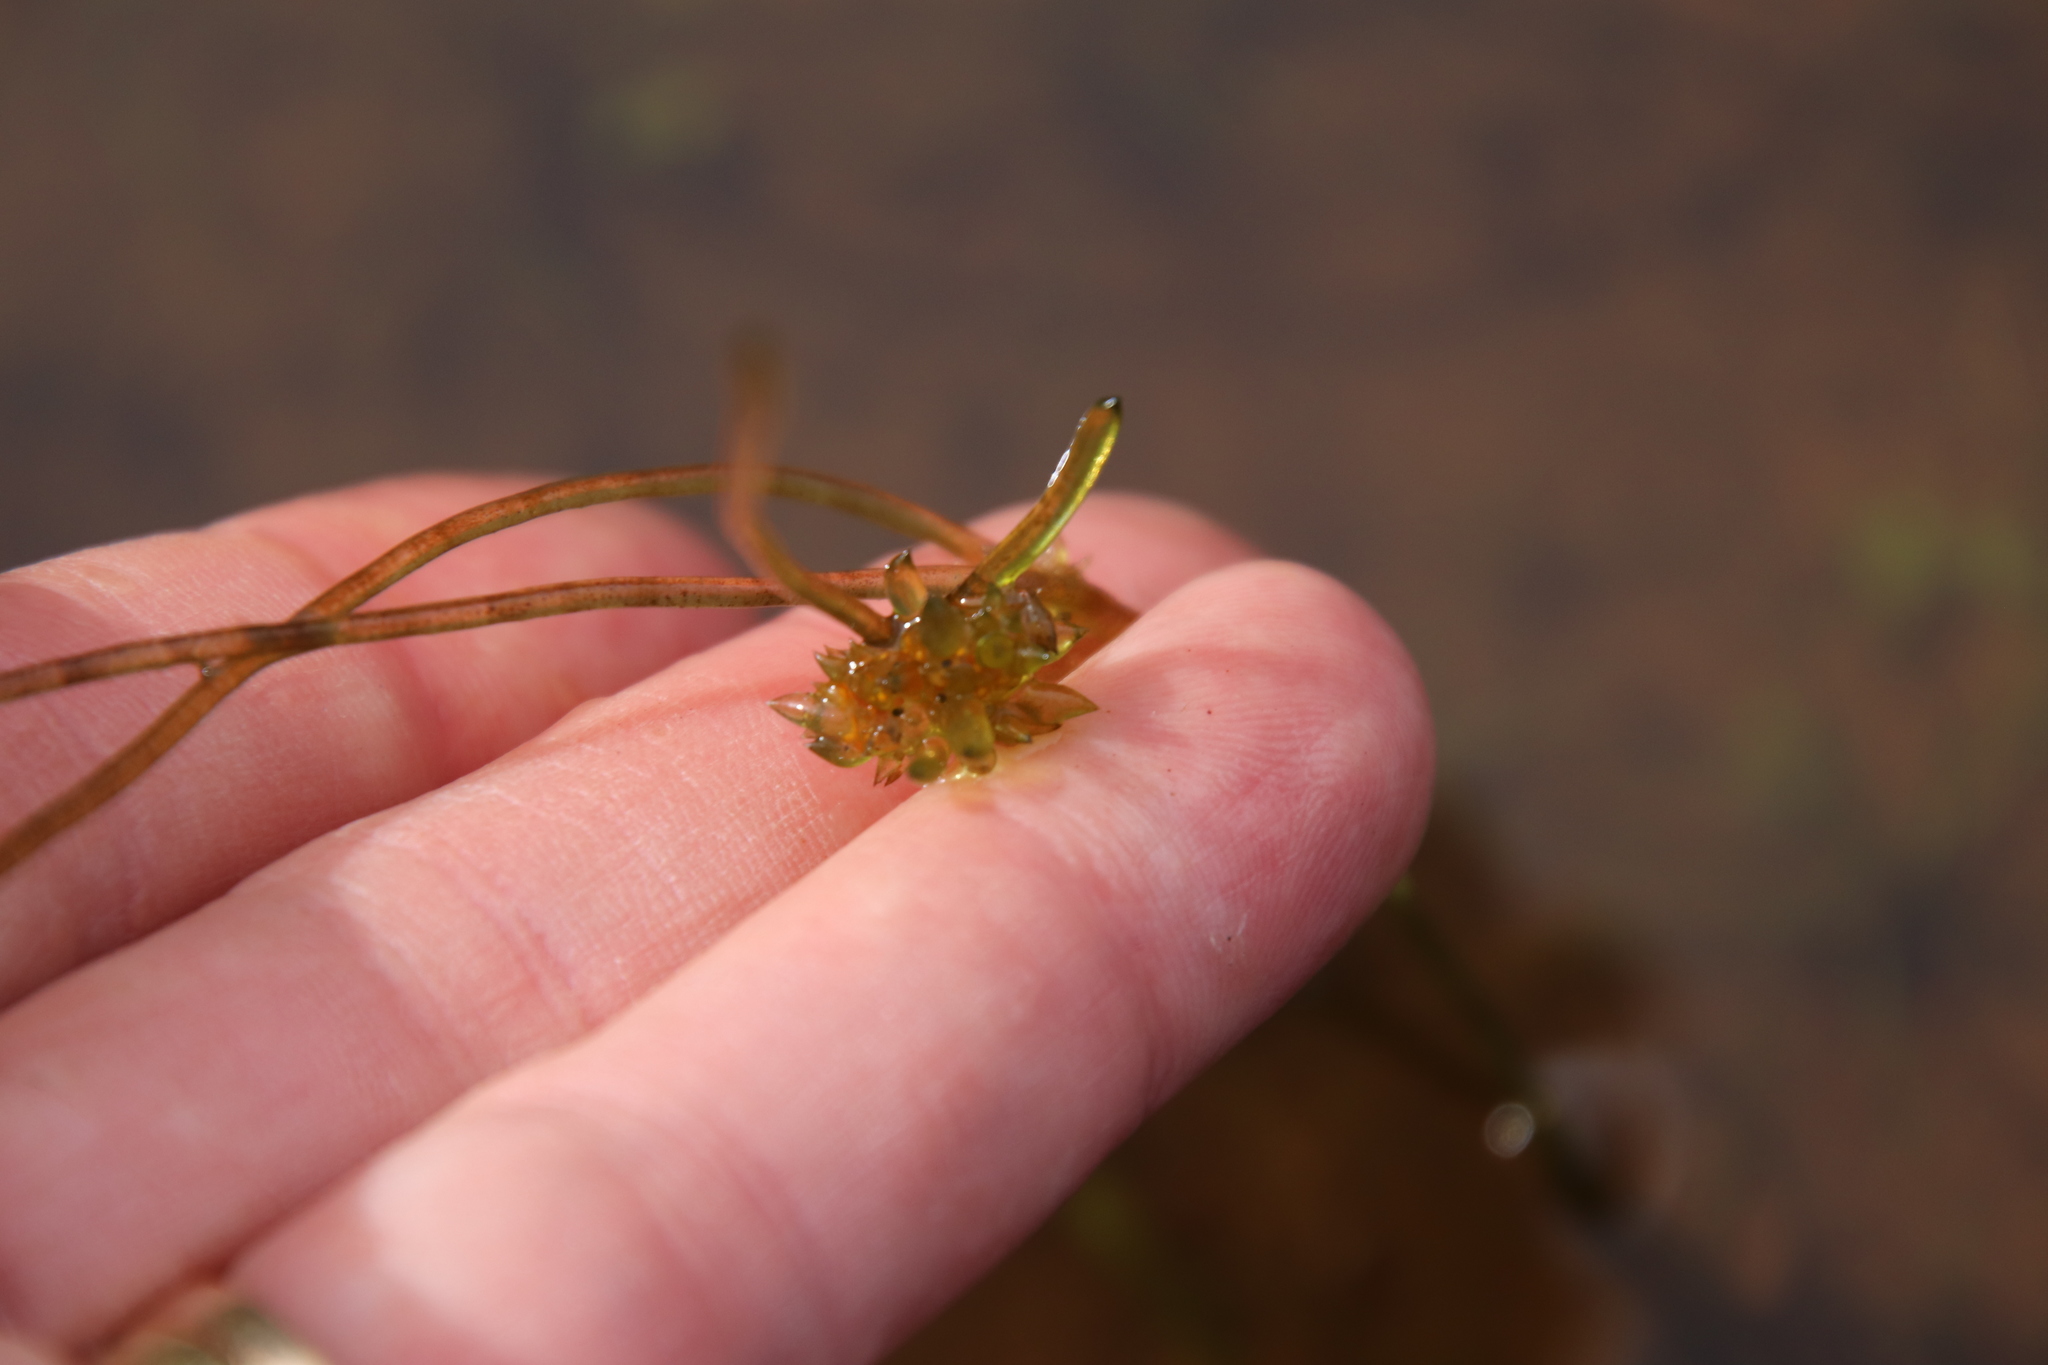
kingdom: Plantae
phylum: Charophyta
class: Charophyceae
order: Charales
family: Characeae
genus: Nitella
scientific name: Nitella clavata
